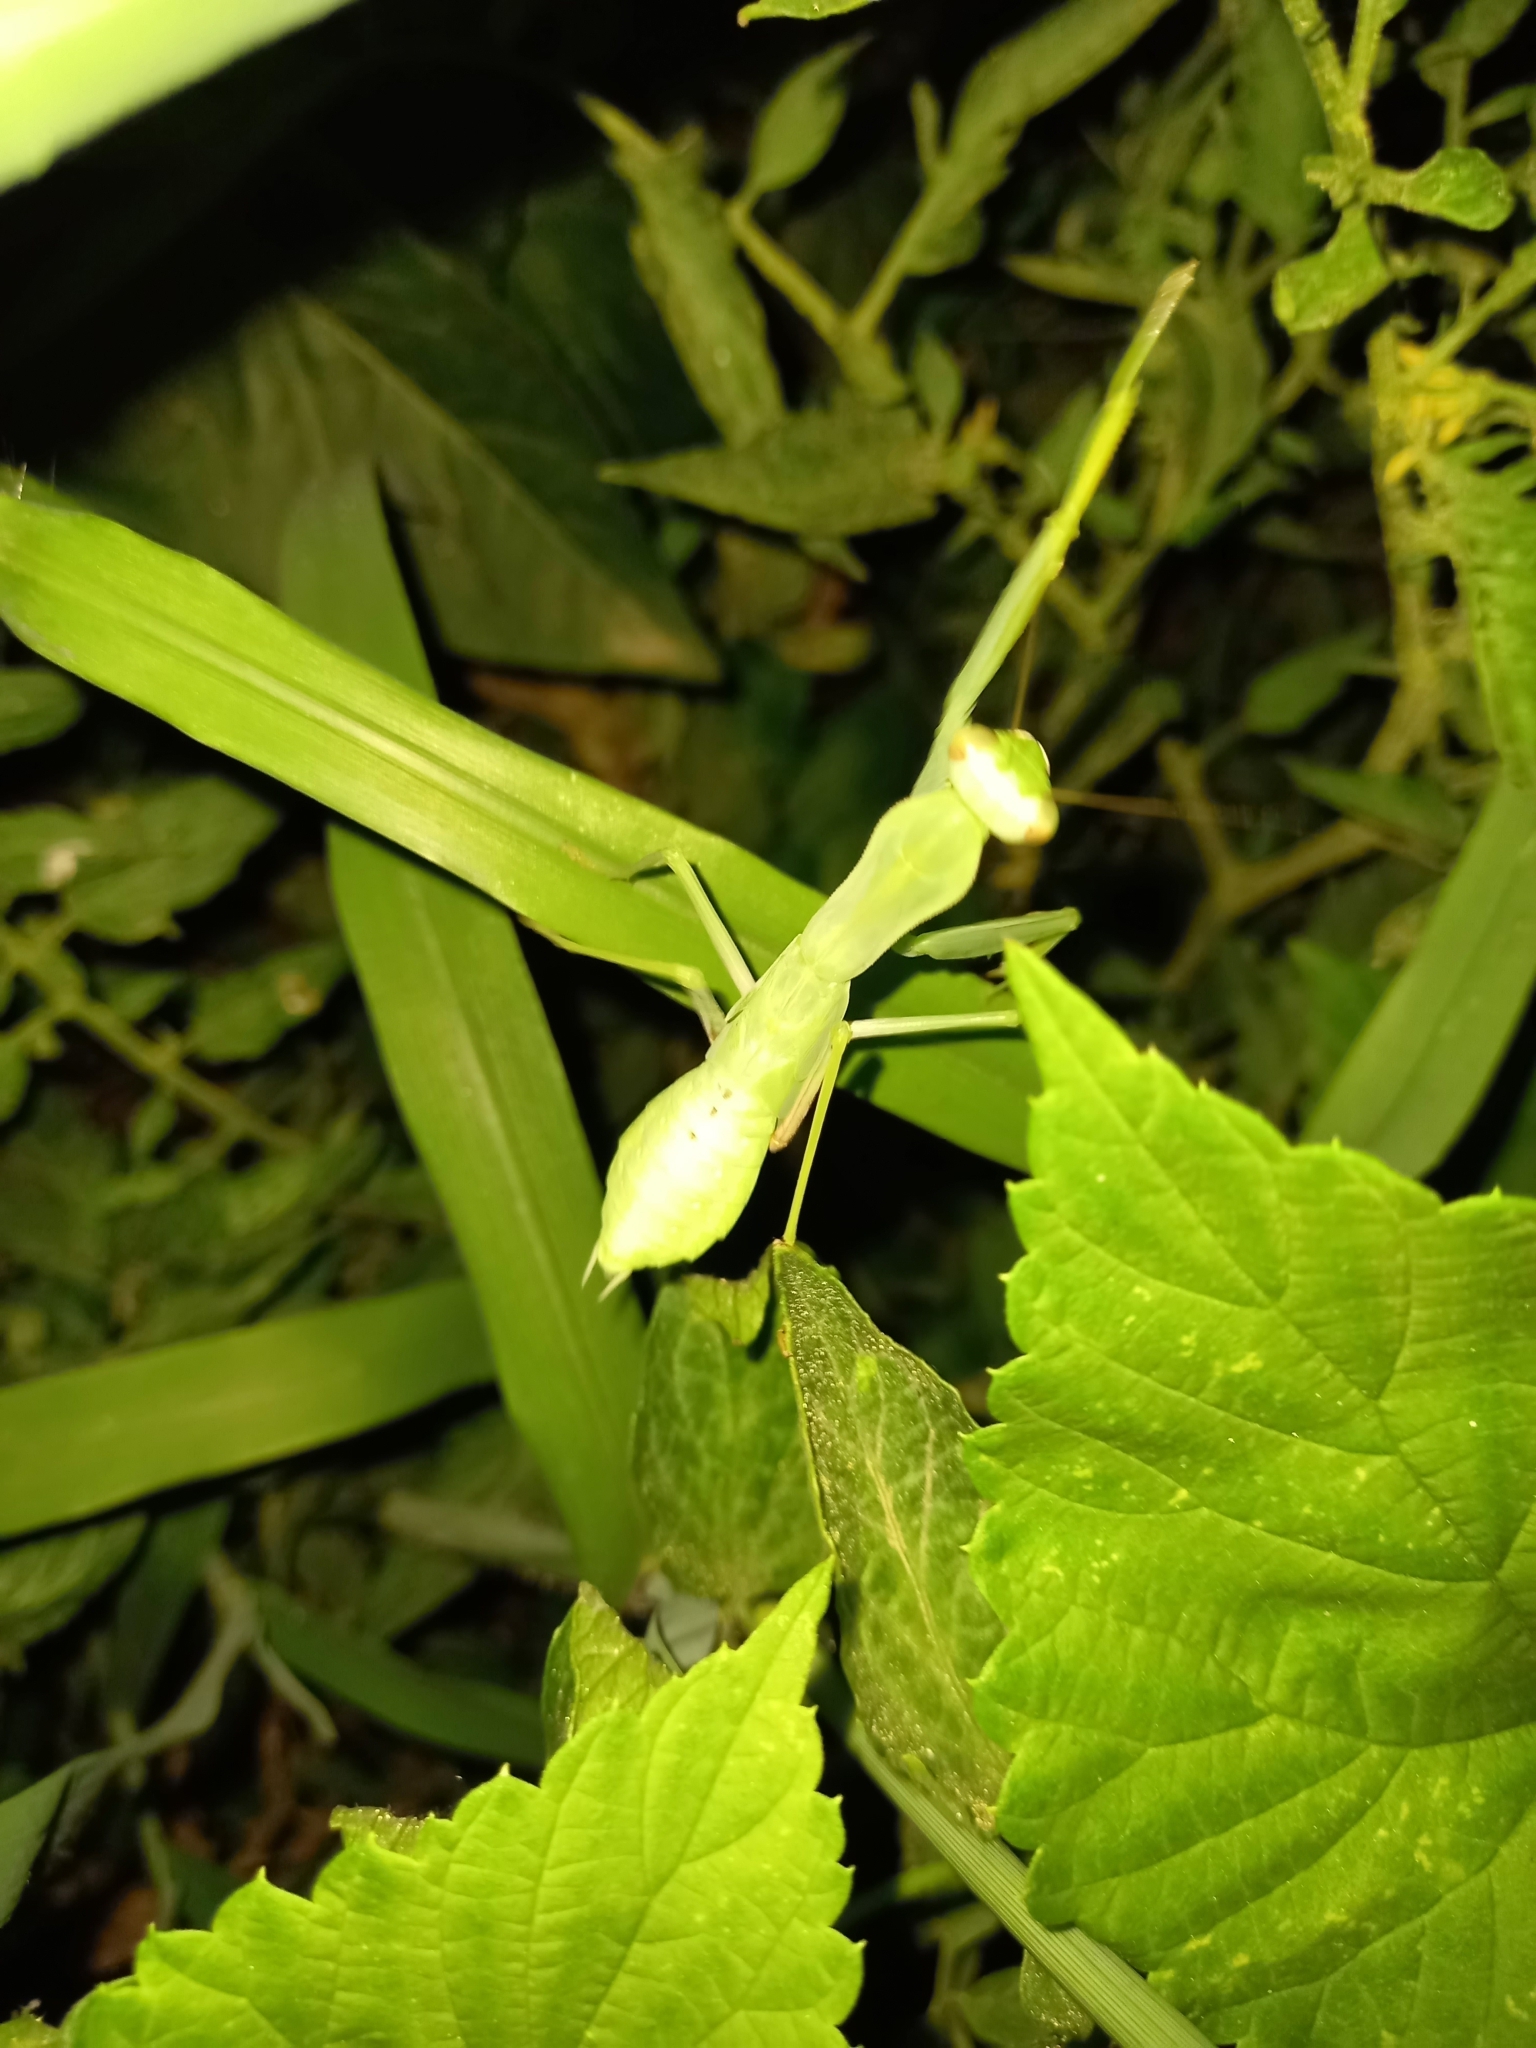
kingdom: Animalia
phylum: Arthropoda
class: Insecta
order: Mantodea
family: Mantidae
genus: Hierodula
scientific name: Hierodula transcaucasica
